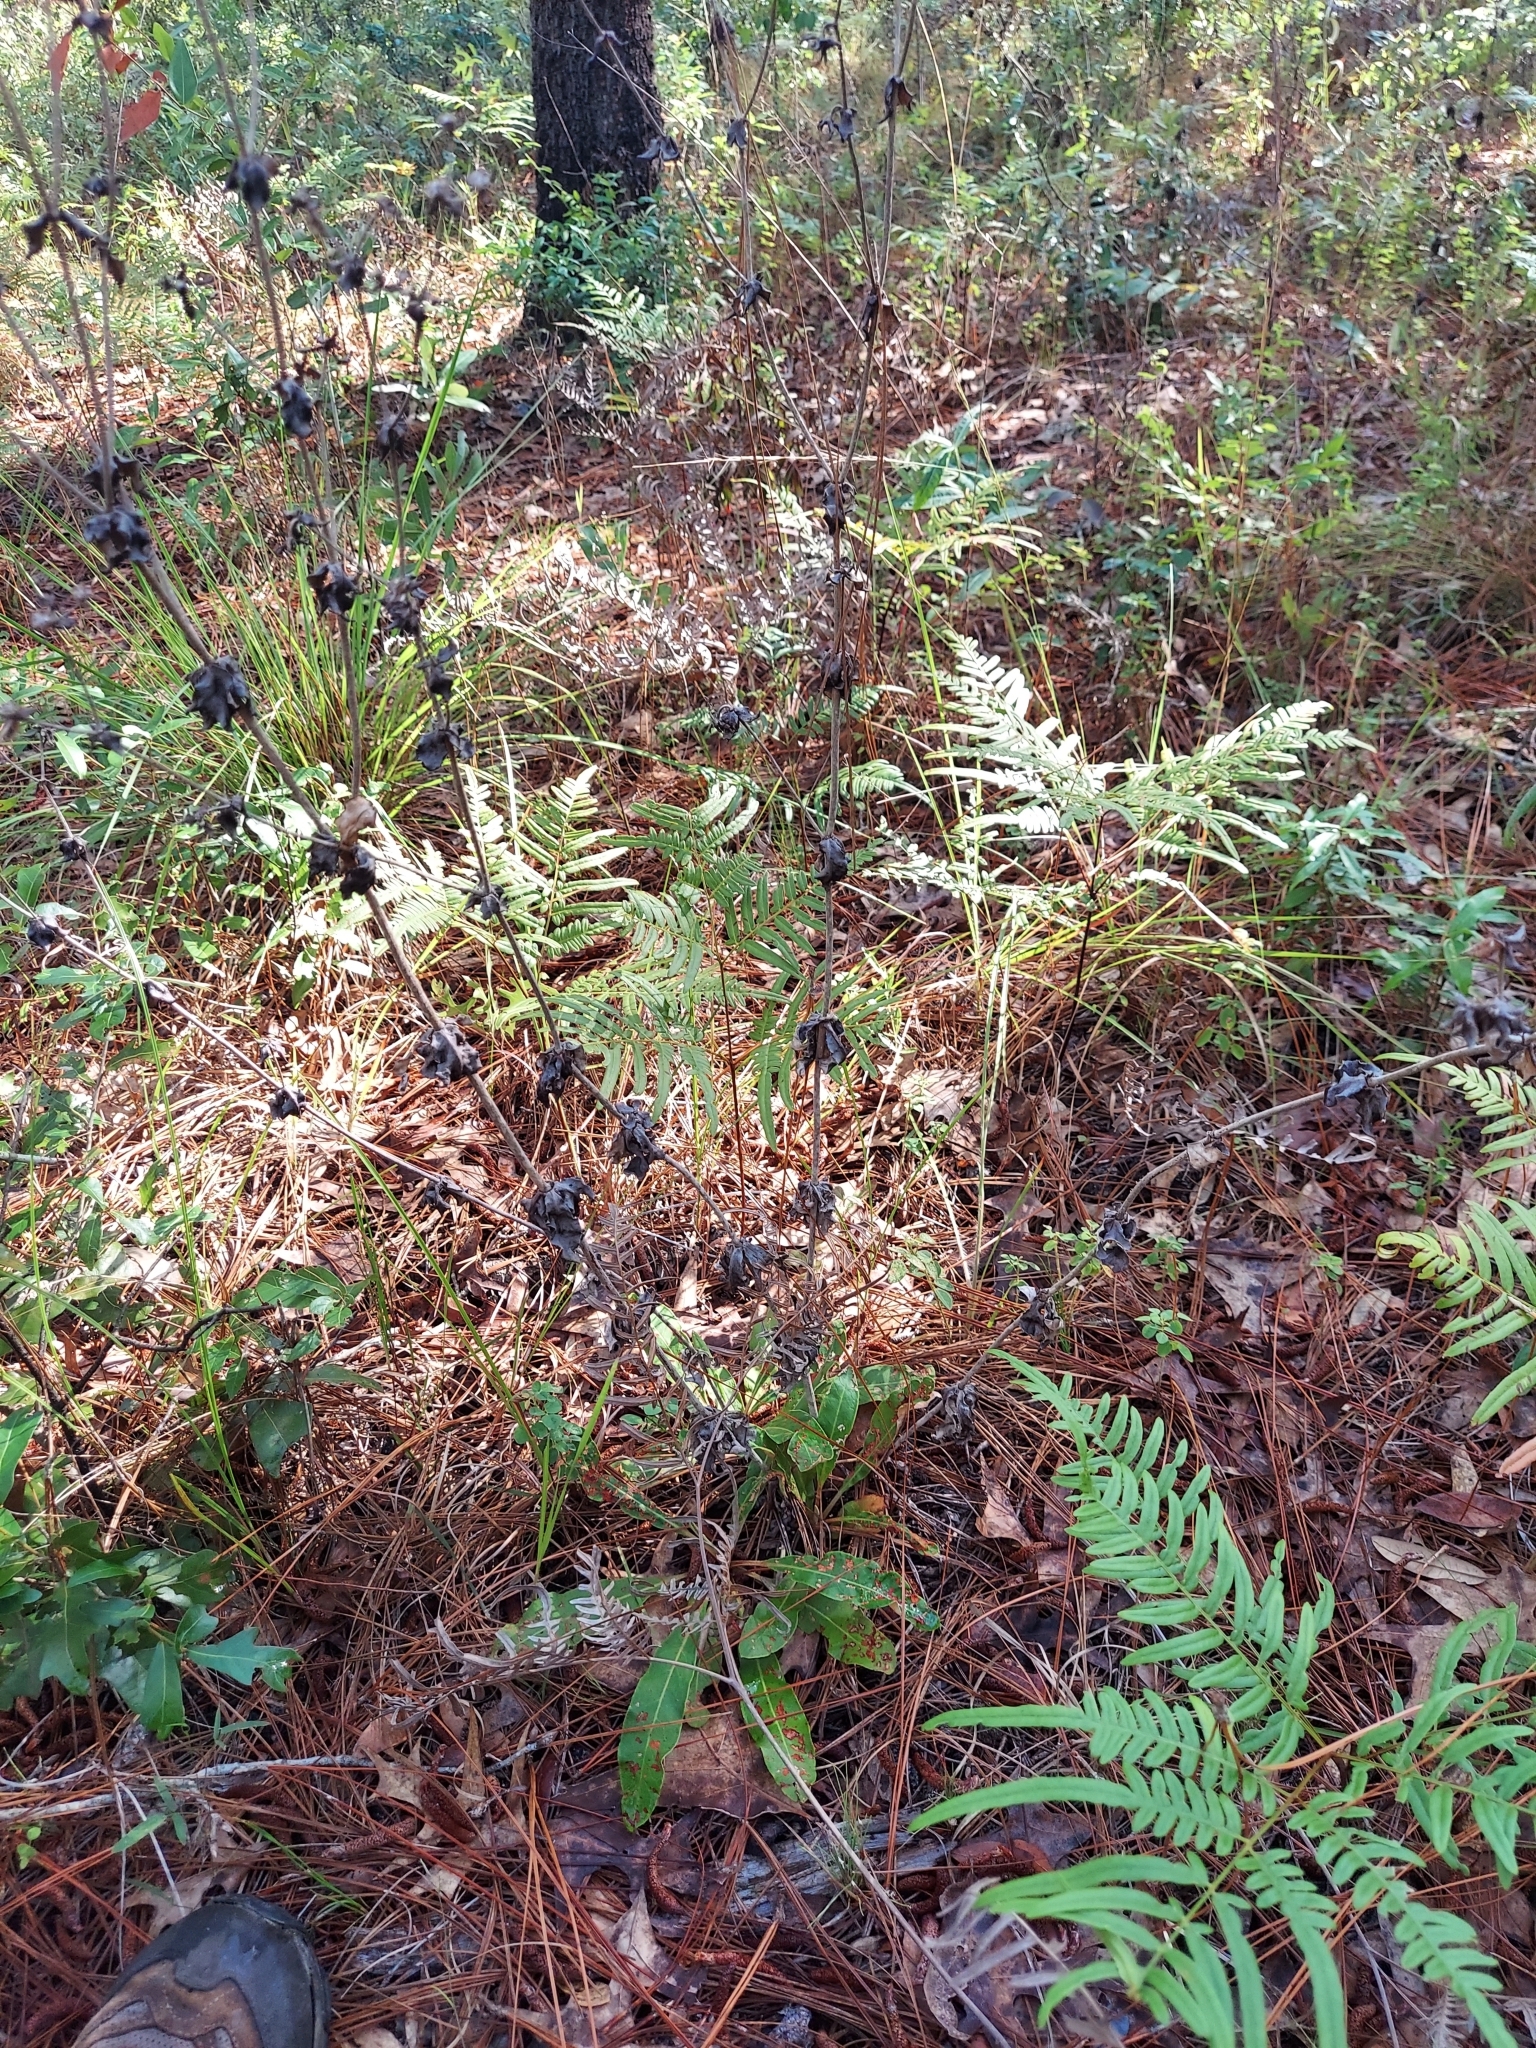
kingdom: Plantae
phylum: Tracheophyta
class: Magnoliopsida
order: Caryophyllales
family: Polygonaceae
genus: Eriogonum
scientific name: Eriogonum tomentosum
